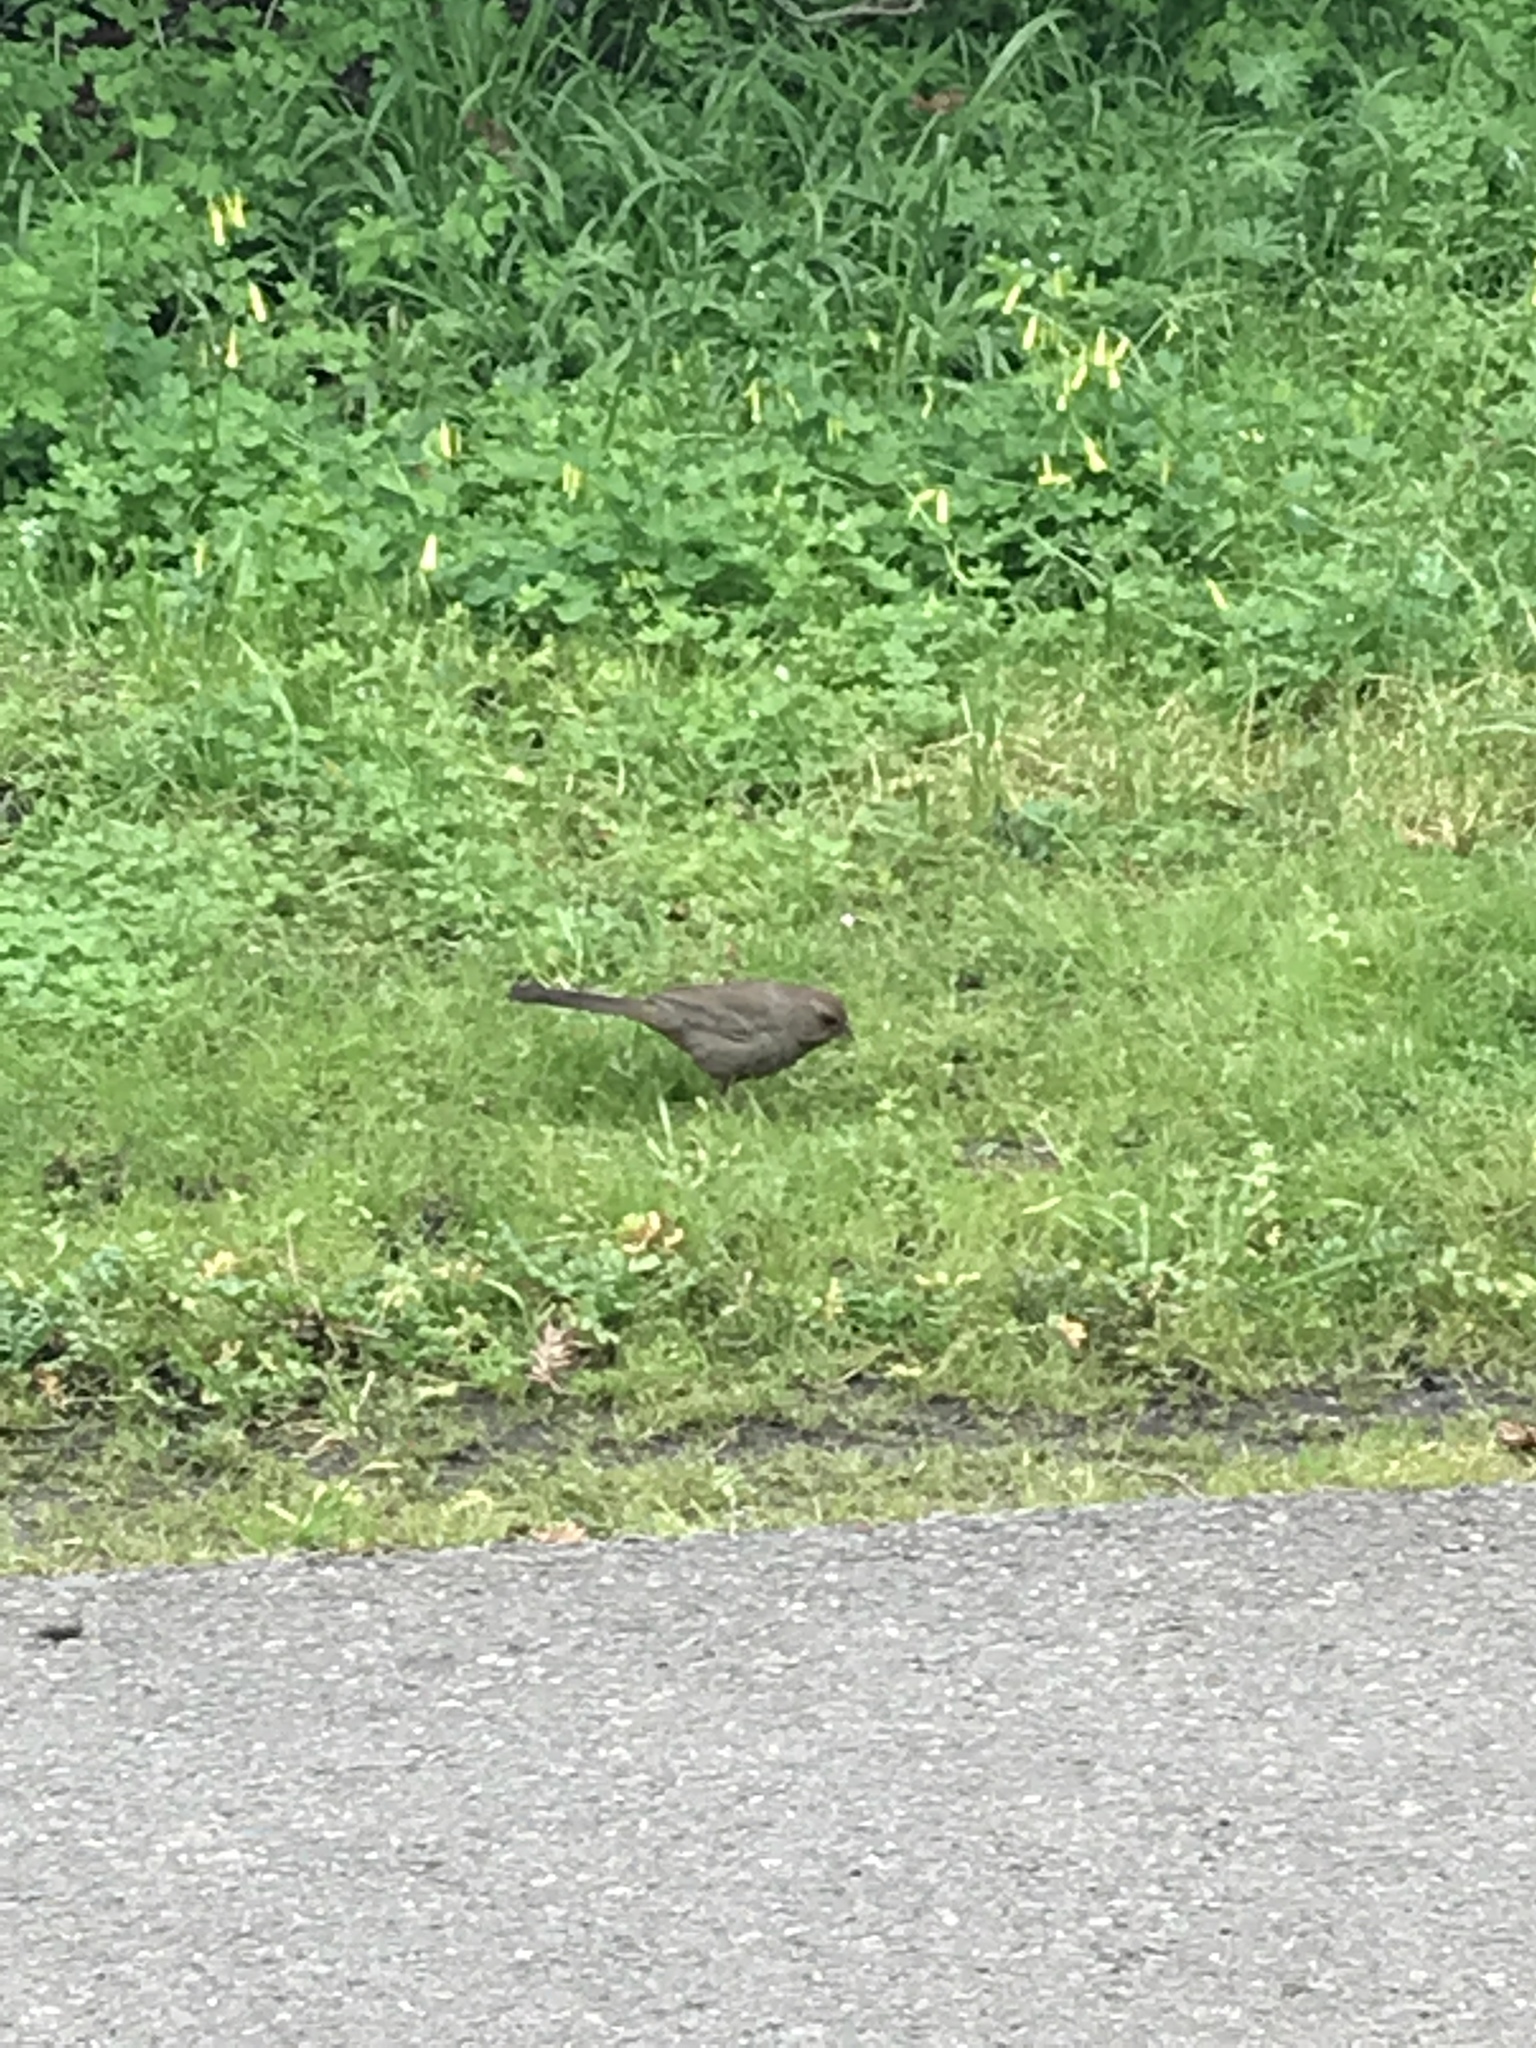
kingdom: Animalia
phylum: Chordata
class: Aves
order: Passeriformes
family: Passerellidae
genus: Melozone
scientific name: Melozone crissalis
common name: California towhee
